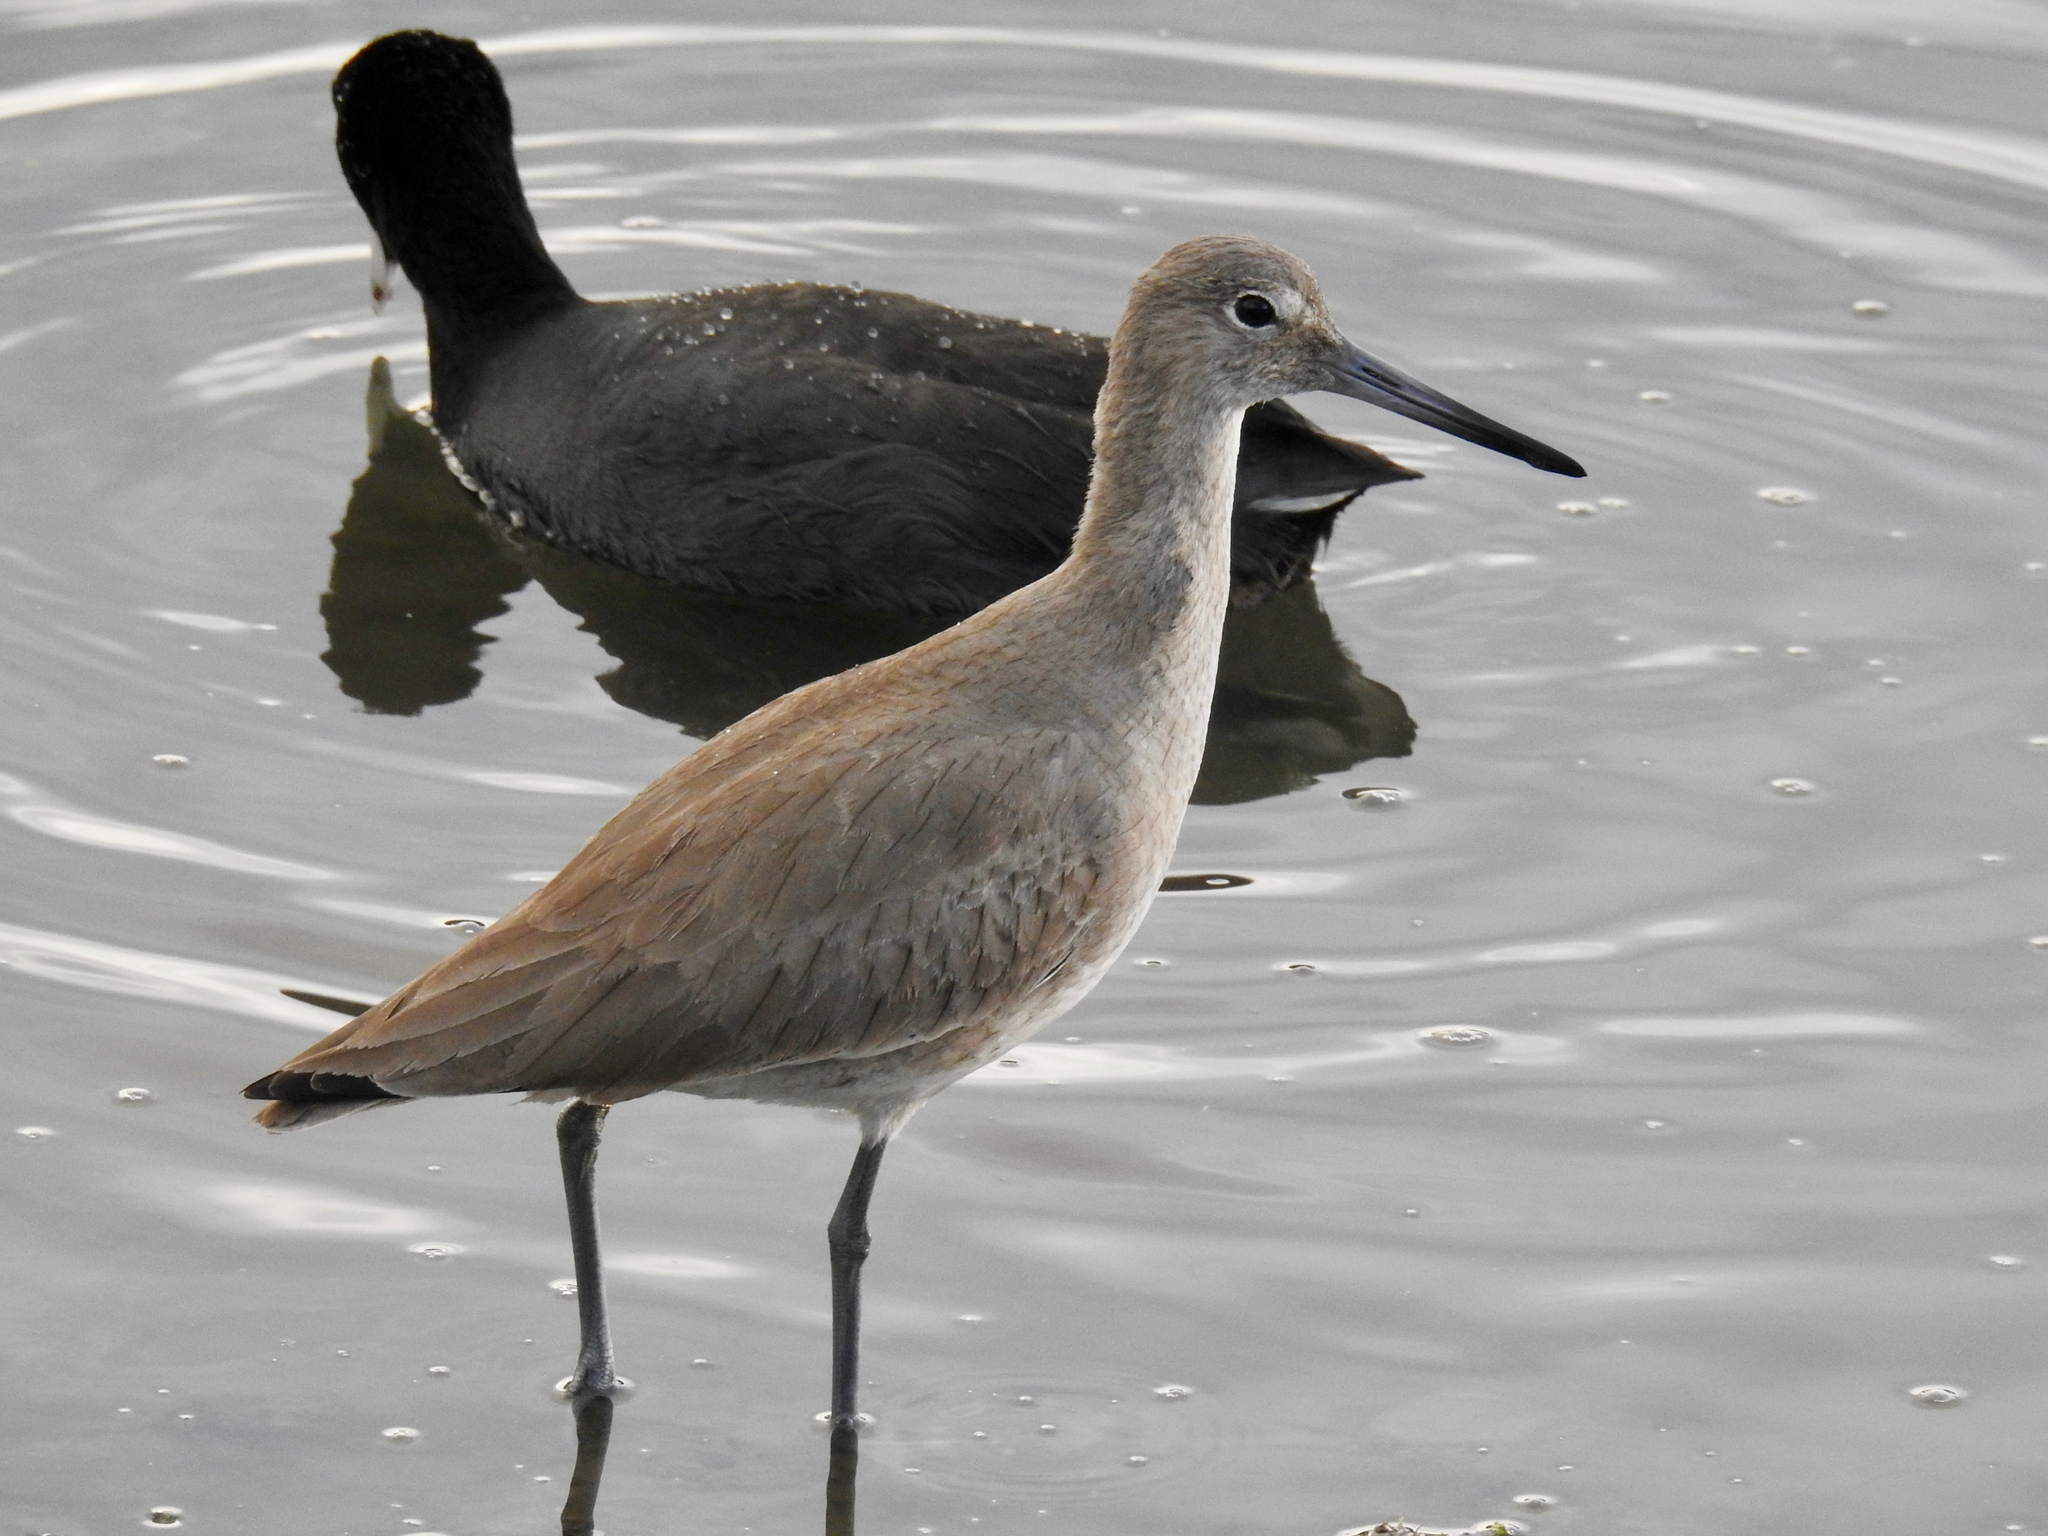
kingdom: Animalia
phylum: Chordata
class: Aves
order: Charadriiformes
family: Scolopacidae
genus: Tringa
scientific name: Tringa semipalmata
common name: Willet
